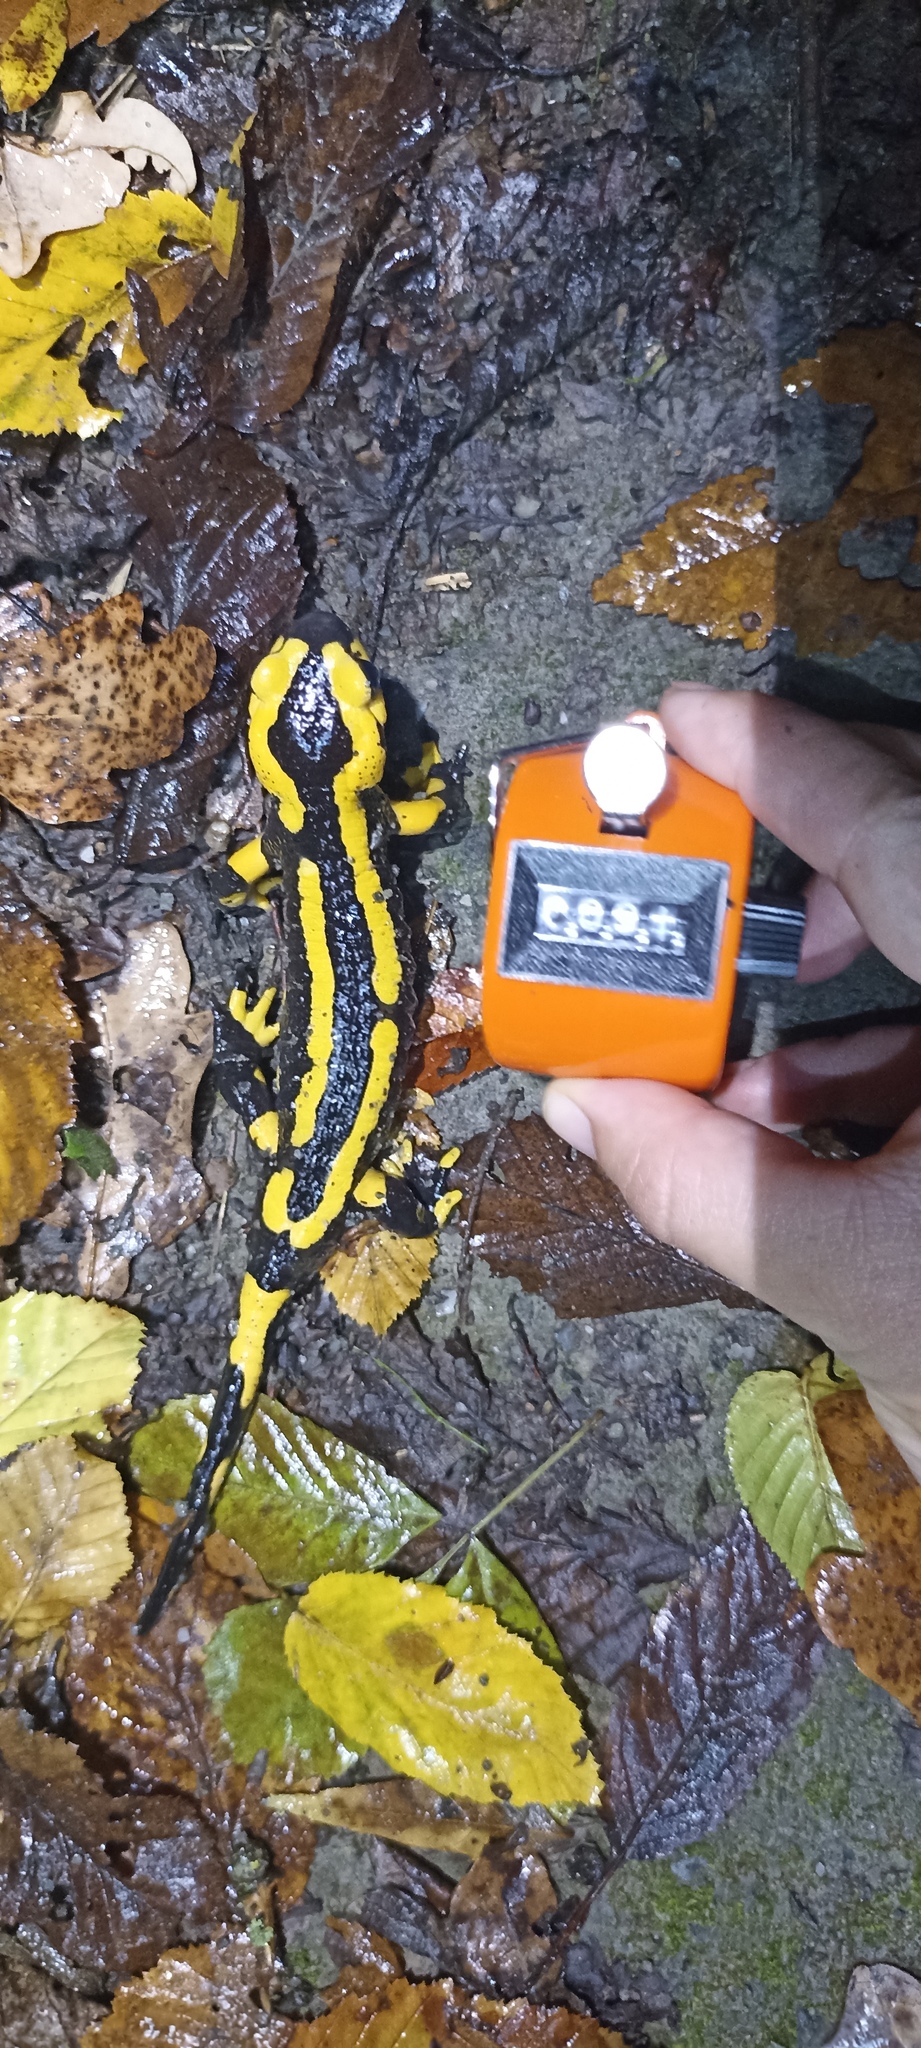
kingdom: Animalia
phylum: Chordata
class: Amphibia
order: Caudata
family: Salamandridae
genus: Salamandra
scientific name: Salamandra salamandra
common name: Fire salamander
